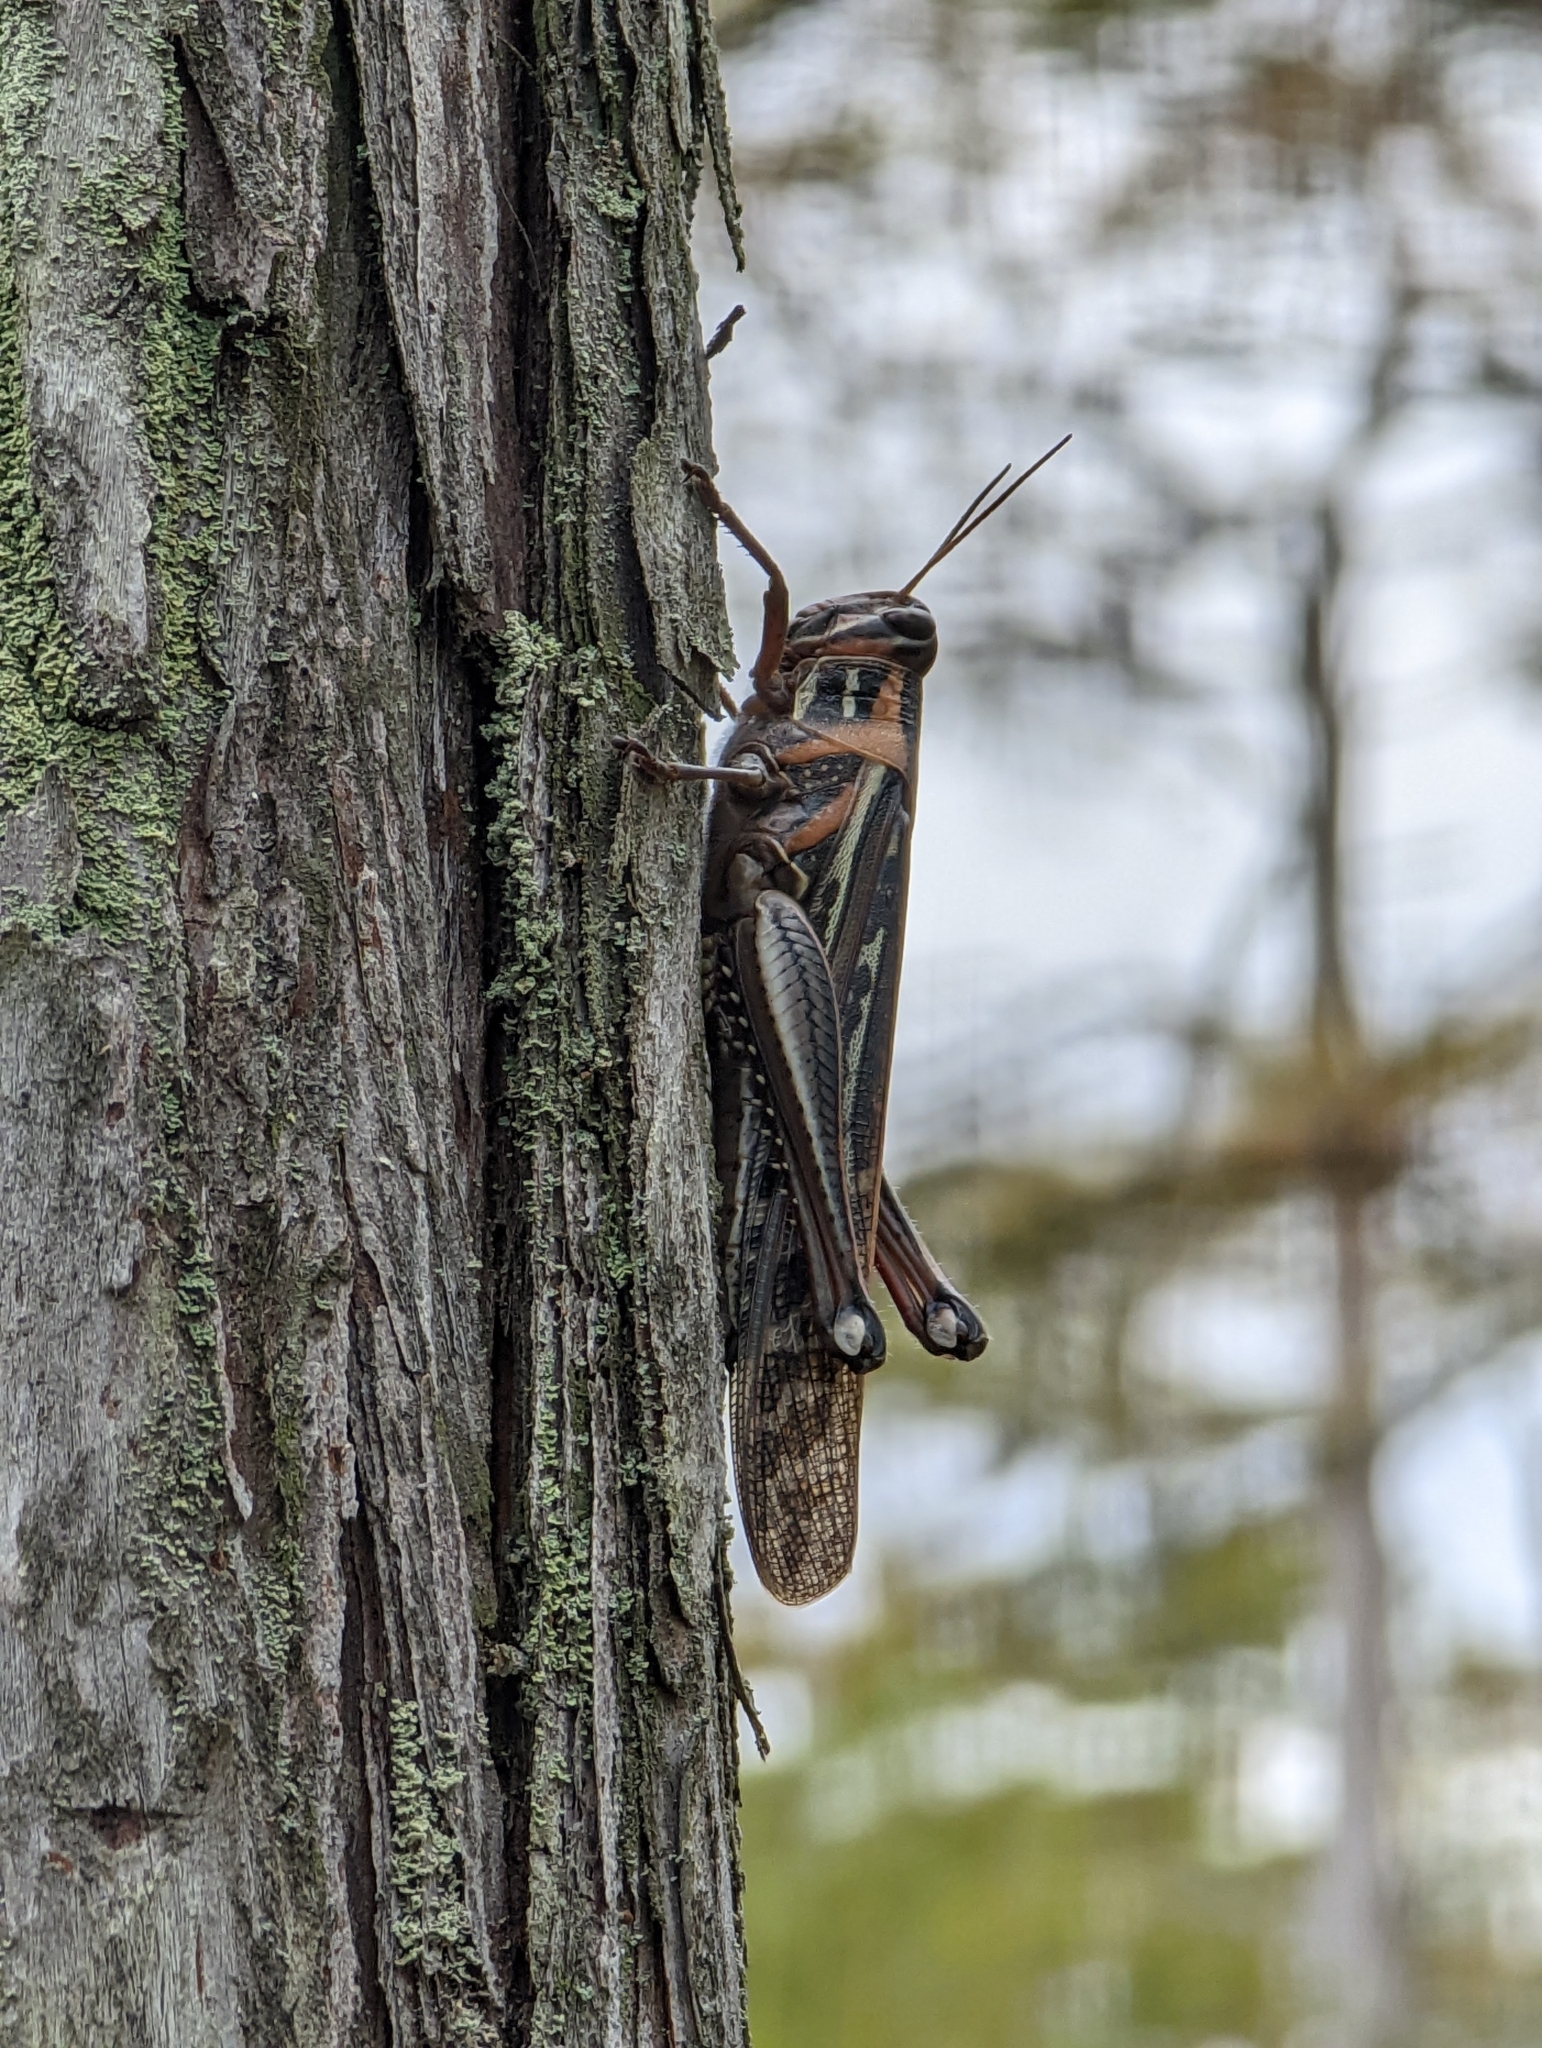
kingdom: Animalia
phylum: Arthropoda
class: Insecta
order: Orthoptera
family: Acrididae
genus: Schistocerca
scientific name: Schistocerca americana
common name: American bird locust
